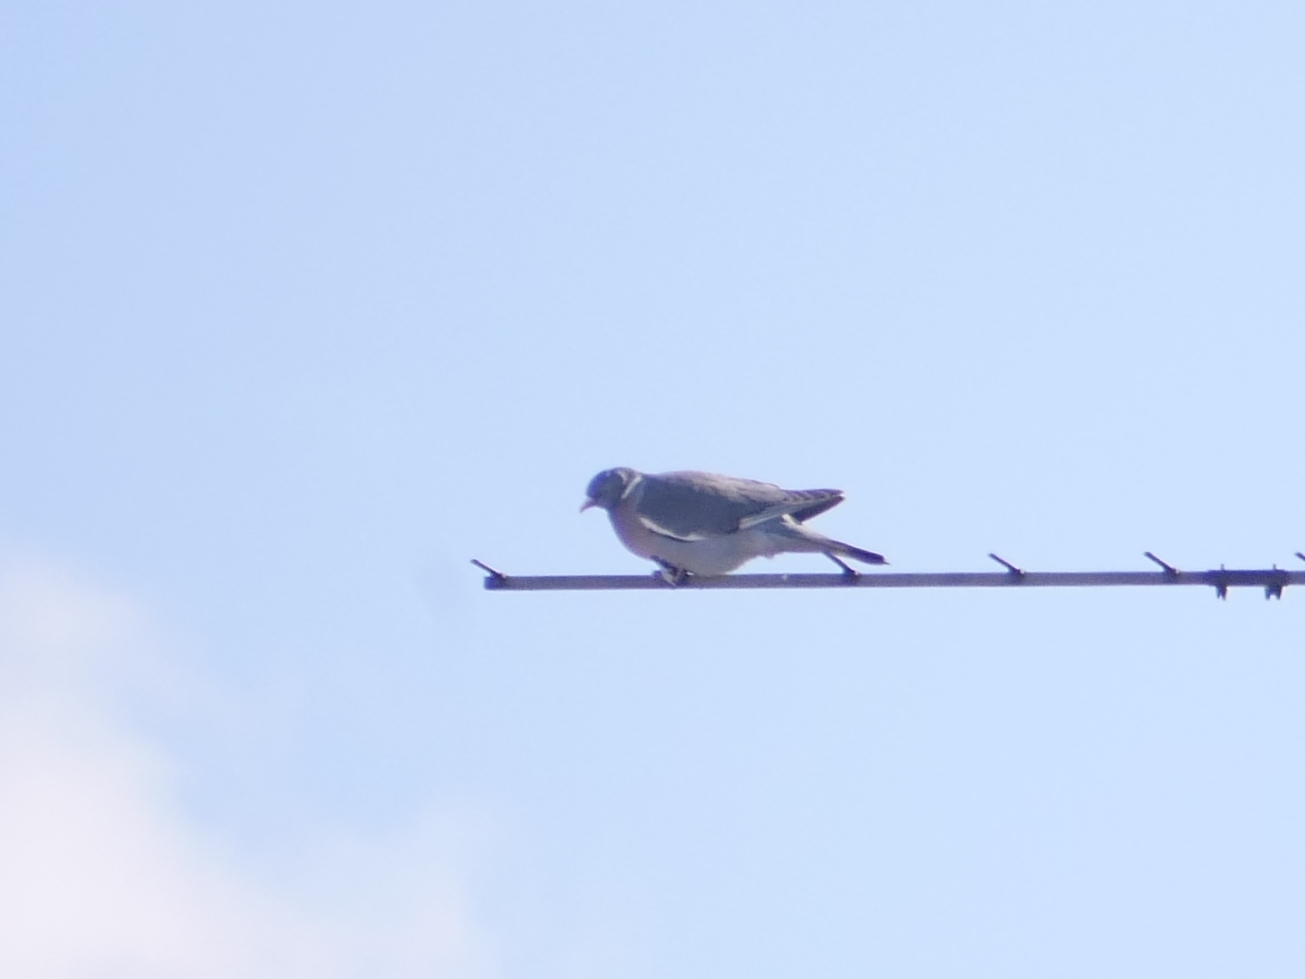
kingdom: Animalia
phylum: Chordata
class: Aves
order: Columbiformes
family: Columbidae
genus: Columba
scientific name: Columba palumbus
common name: Common wood pigeon
